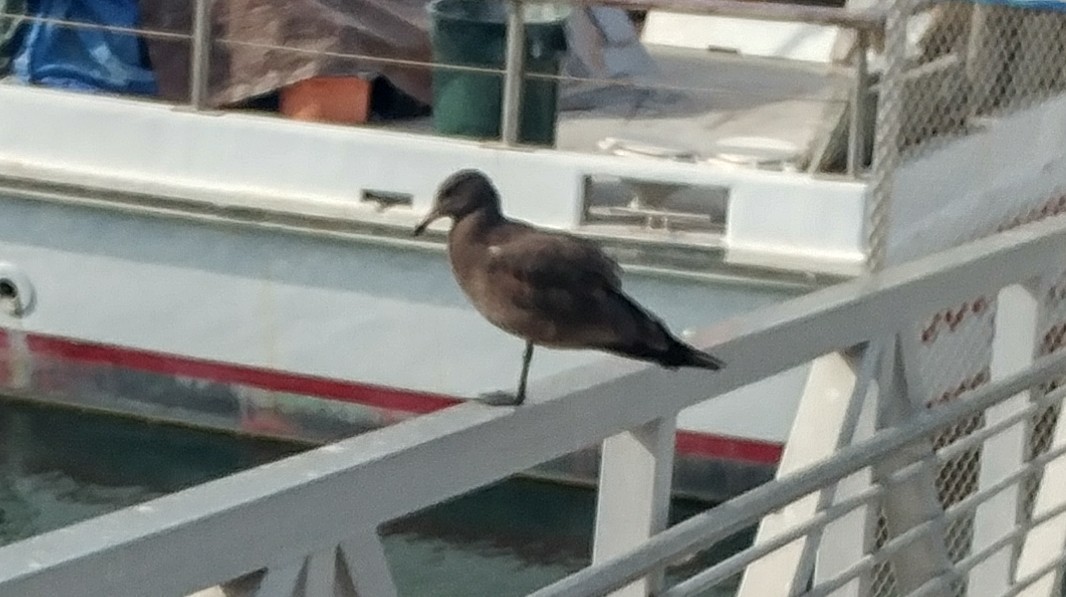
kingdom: Animalia
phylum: Chordata
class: Aves
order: Charadriiformes
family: Laridae
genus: Larus
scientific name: Larus heermanni
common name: Heermann's gull
